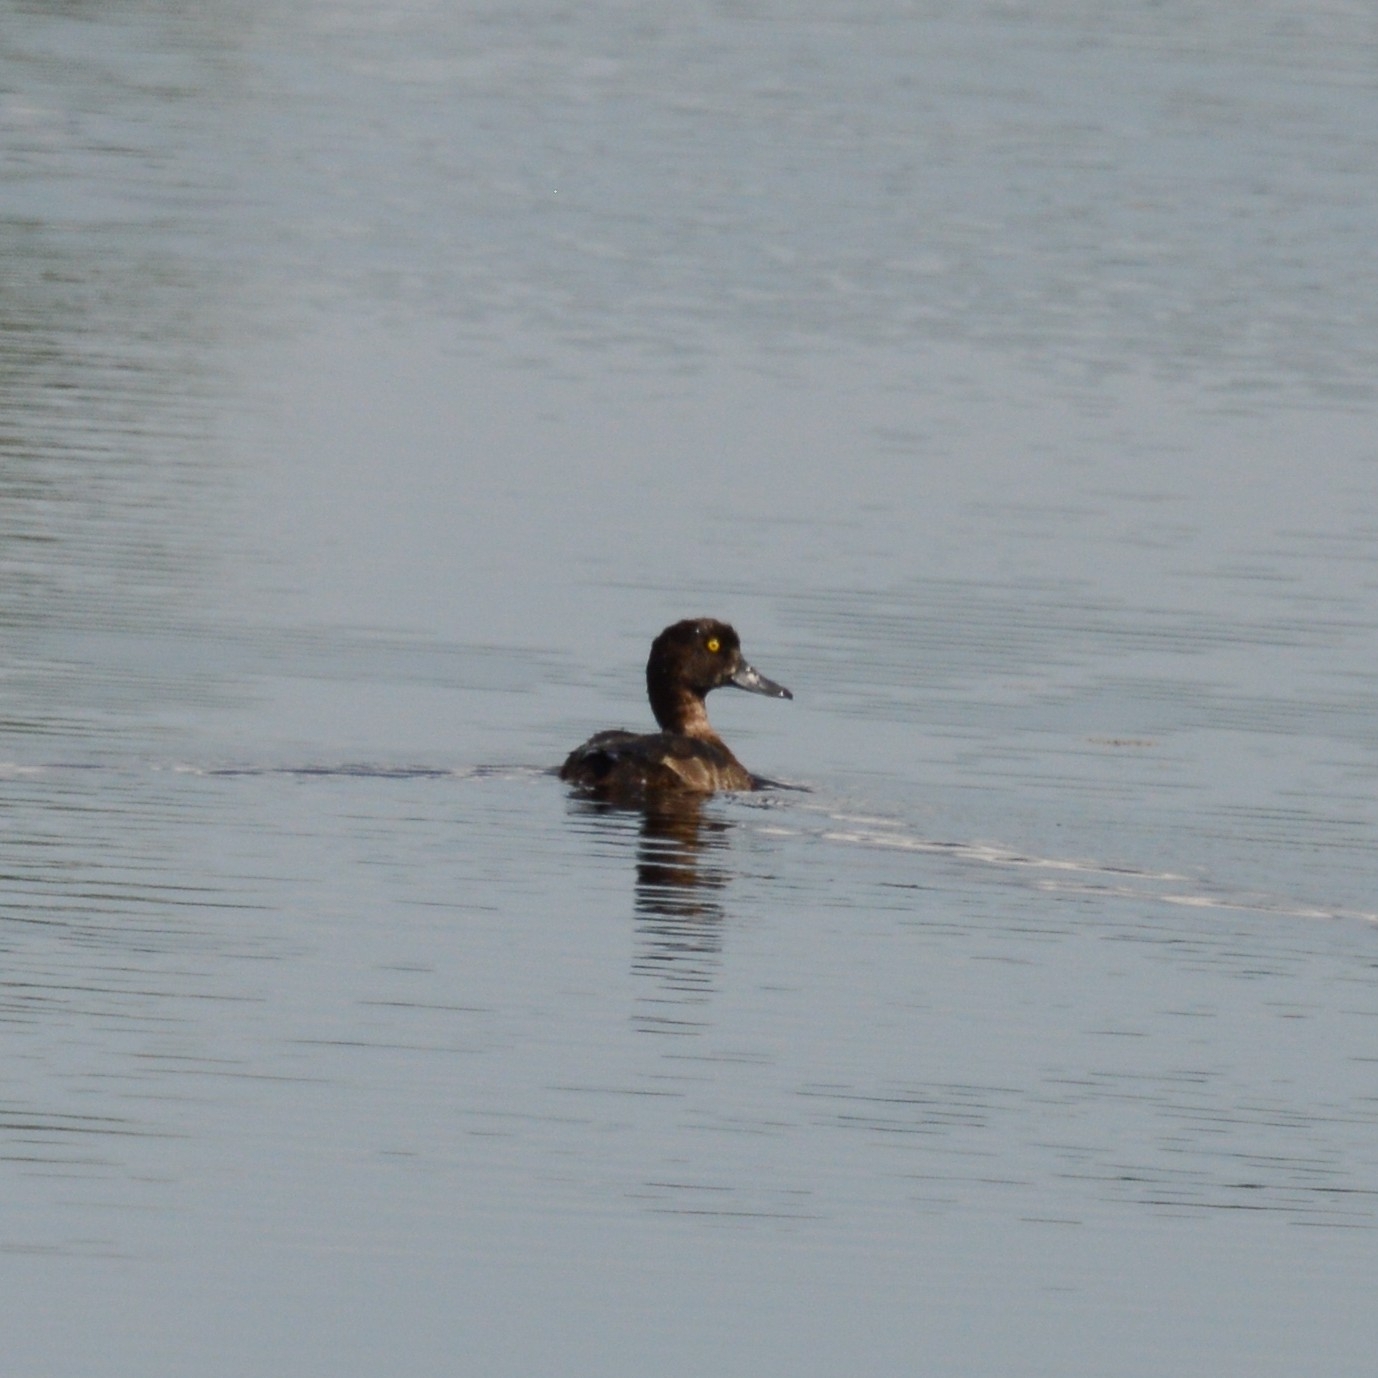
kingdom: Animalia
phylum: Chordata
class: Aves
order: Anseriformes
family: Anatidae
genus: Aythya
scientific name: Aythya fuligula
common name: Tufted duck
